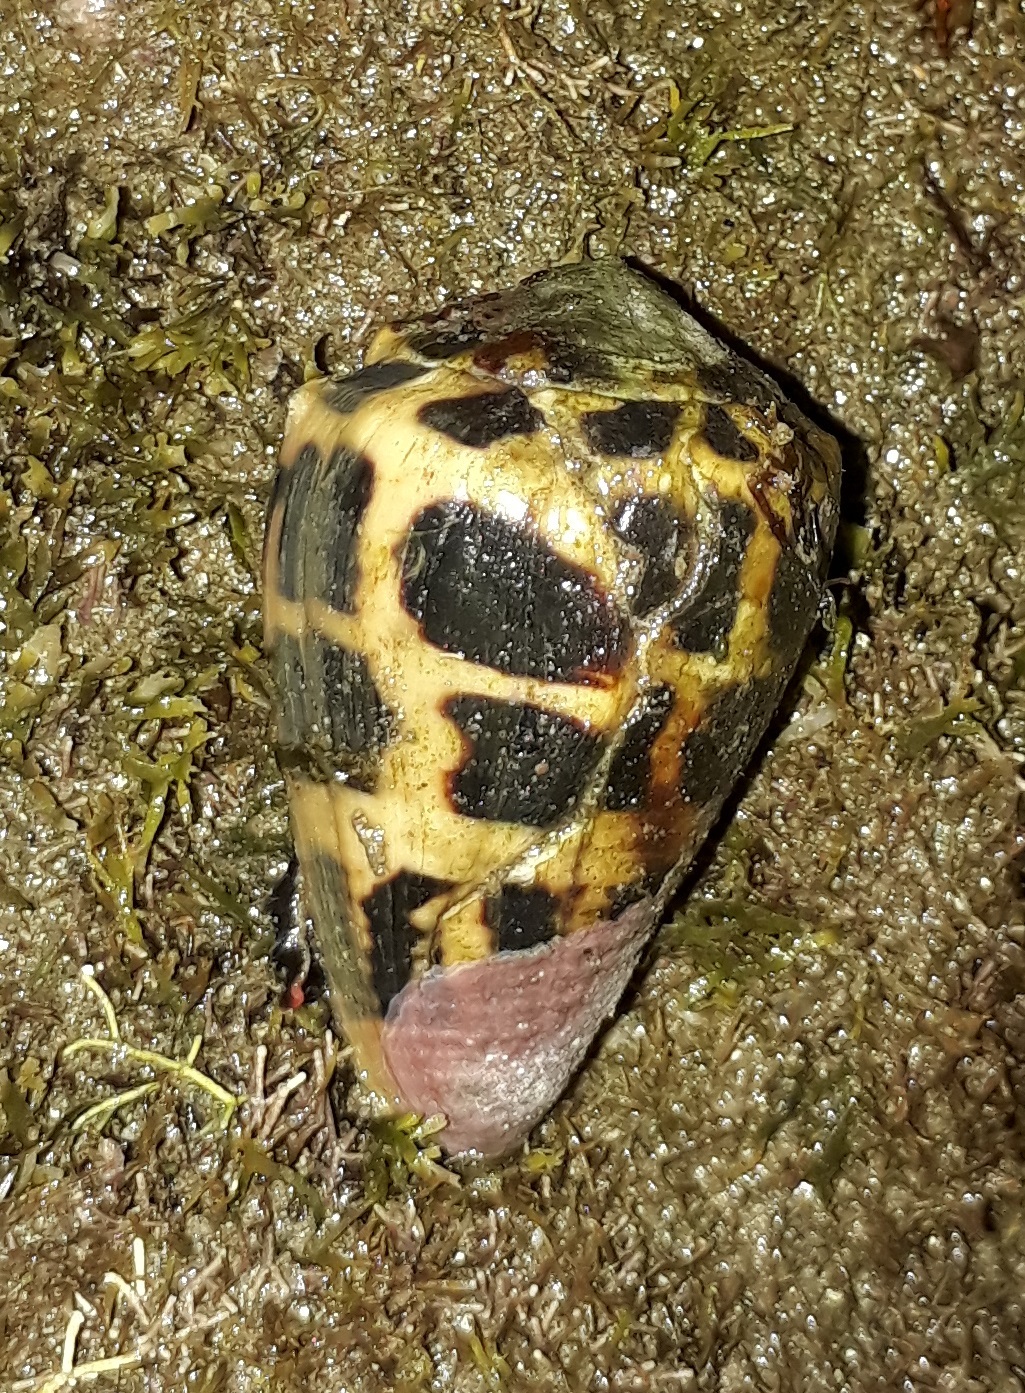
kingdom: Animalia
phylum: Mollusca
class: Gastropoda
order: Neogastropoda
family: Conidae
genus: Conus
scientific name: Conus ebraeus
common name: Hebrew cone
